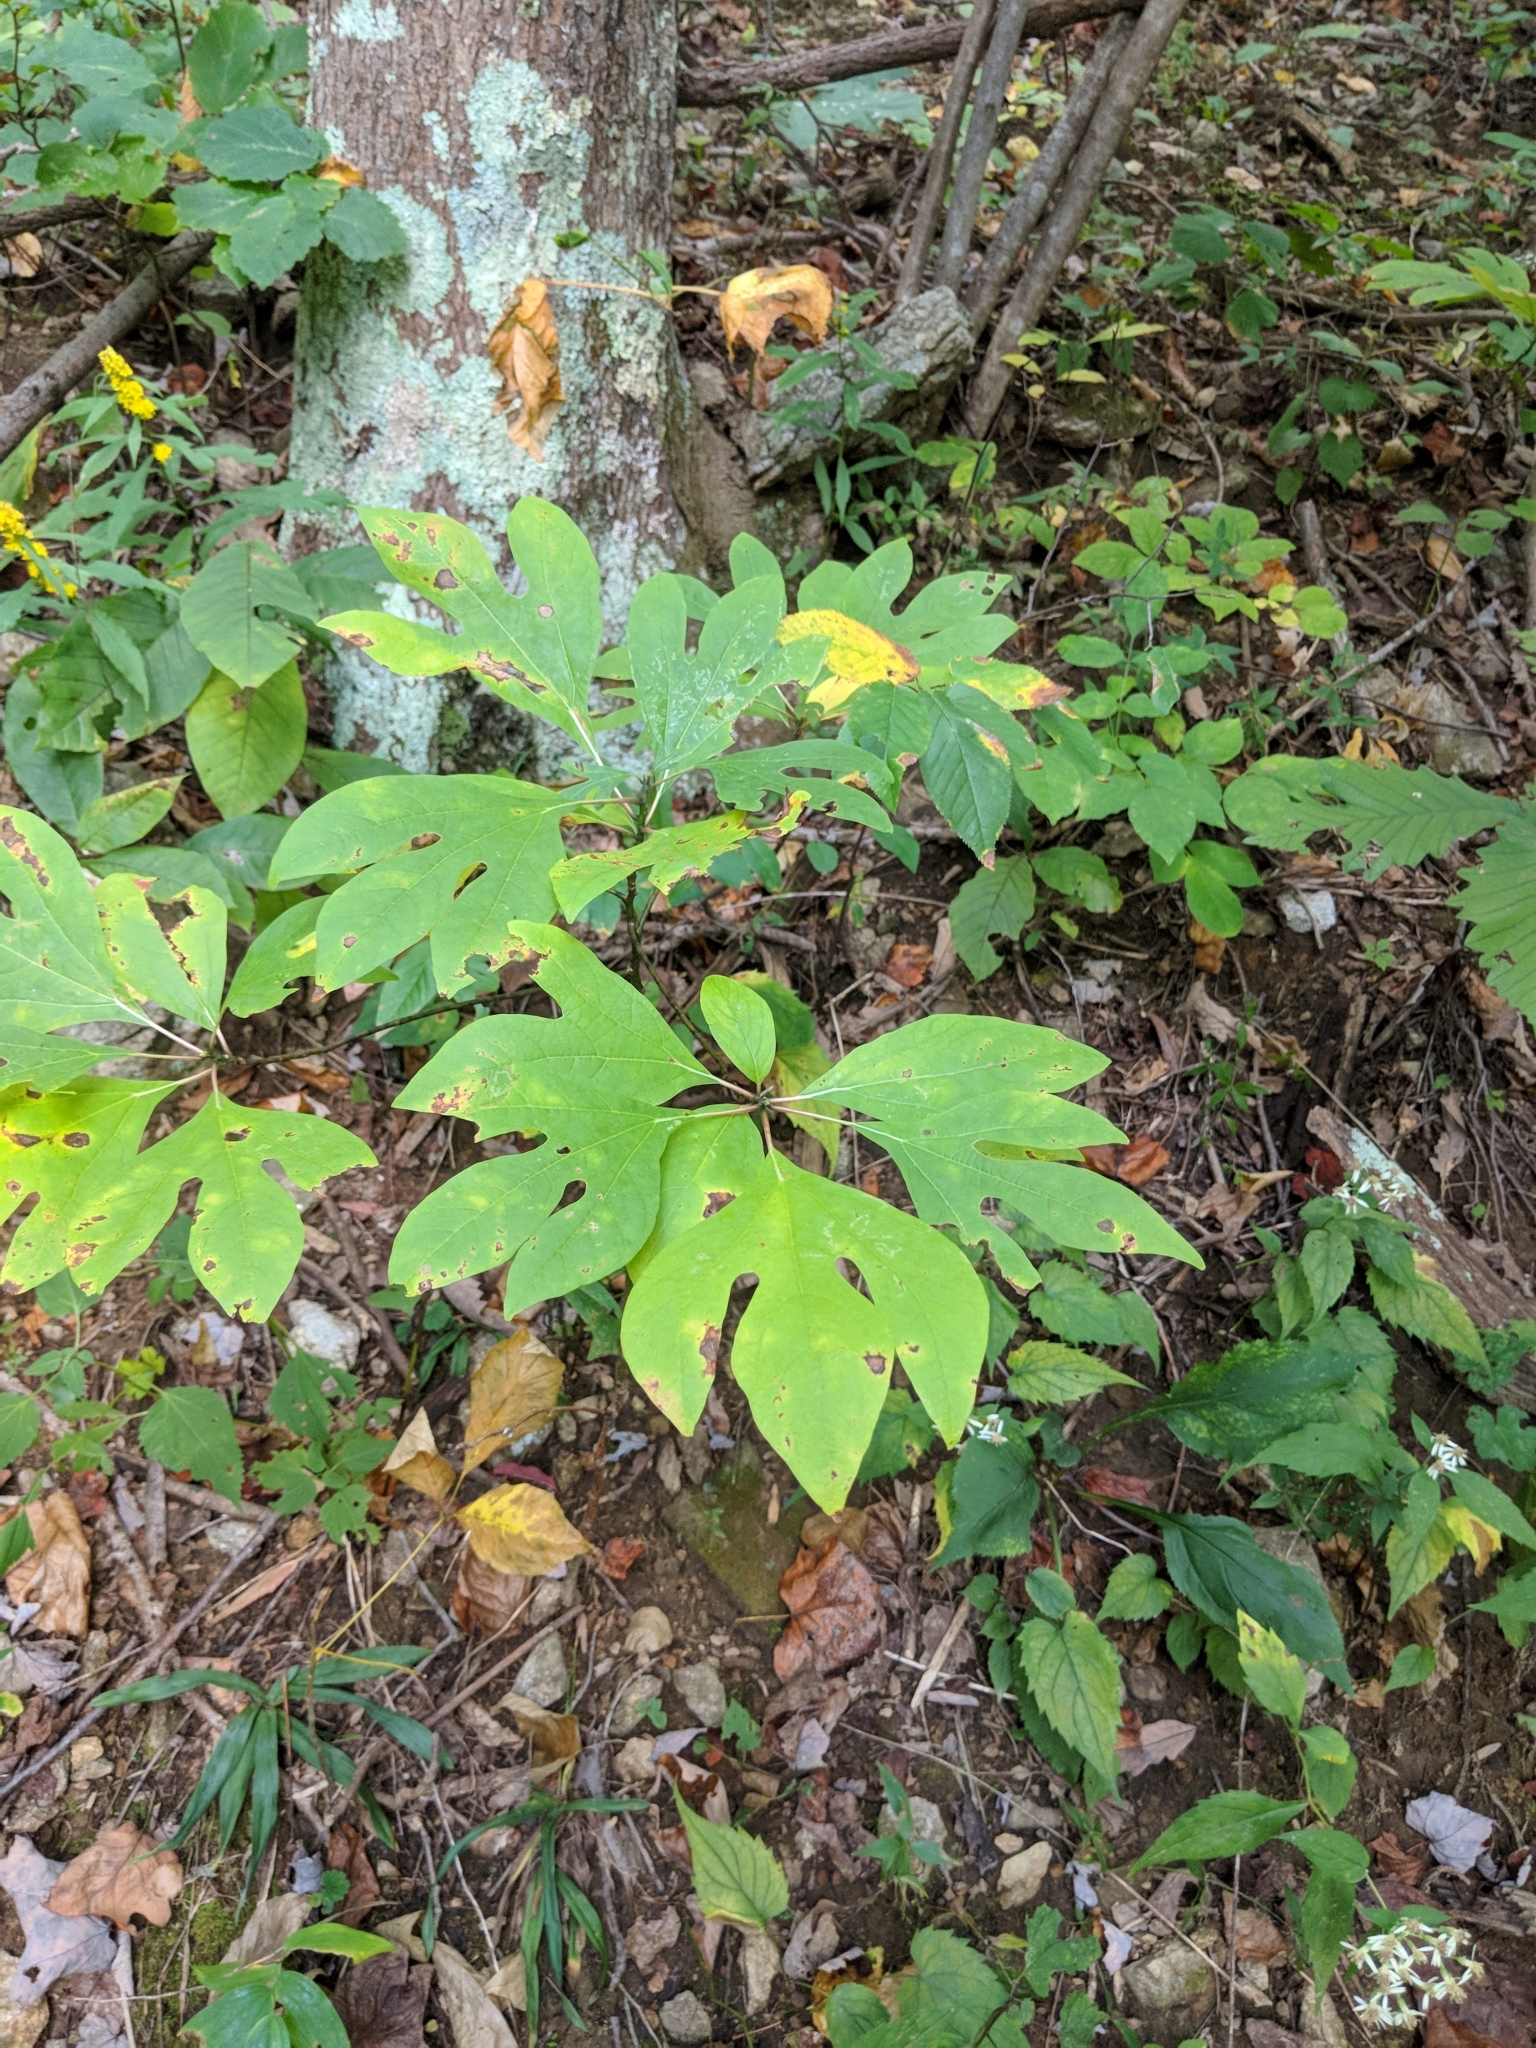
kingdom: Plantae
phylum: Tracheophyta
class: Magnoliopsida
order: Laurales
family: Lauraceae
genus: Sassafras
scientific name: Sassafras albidum
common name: Sassafras
